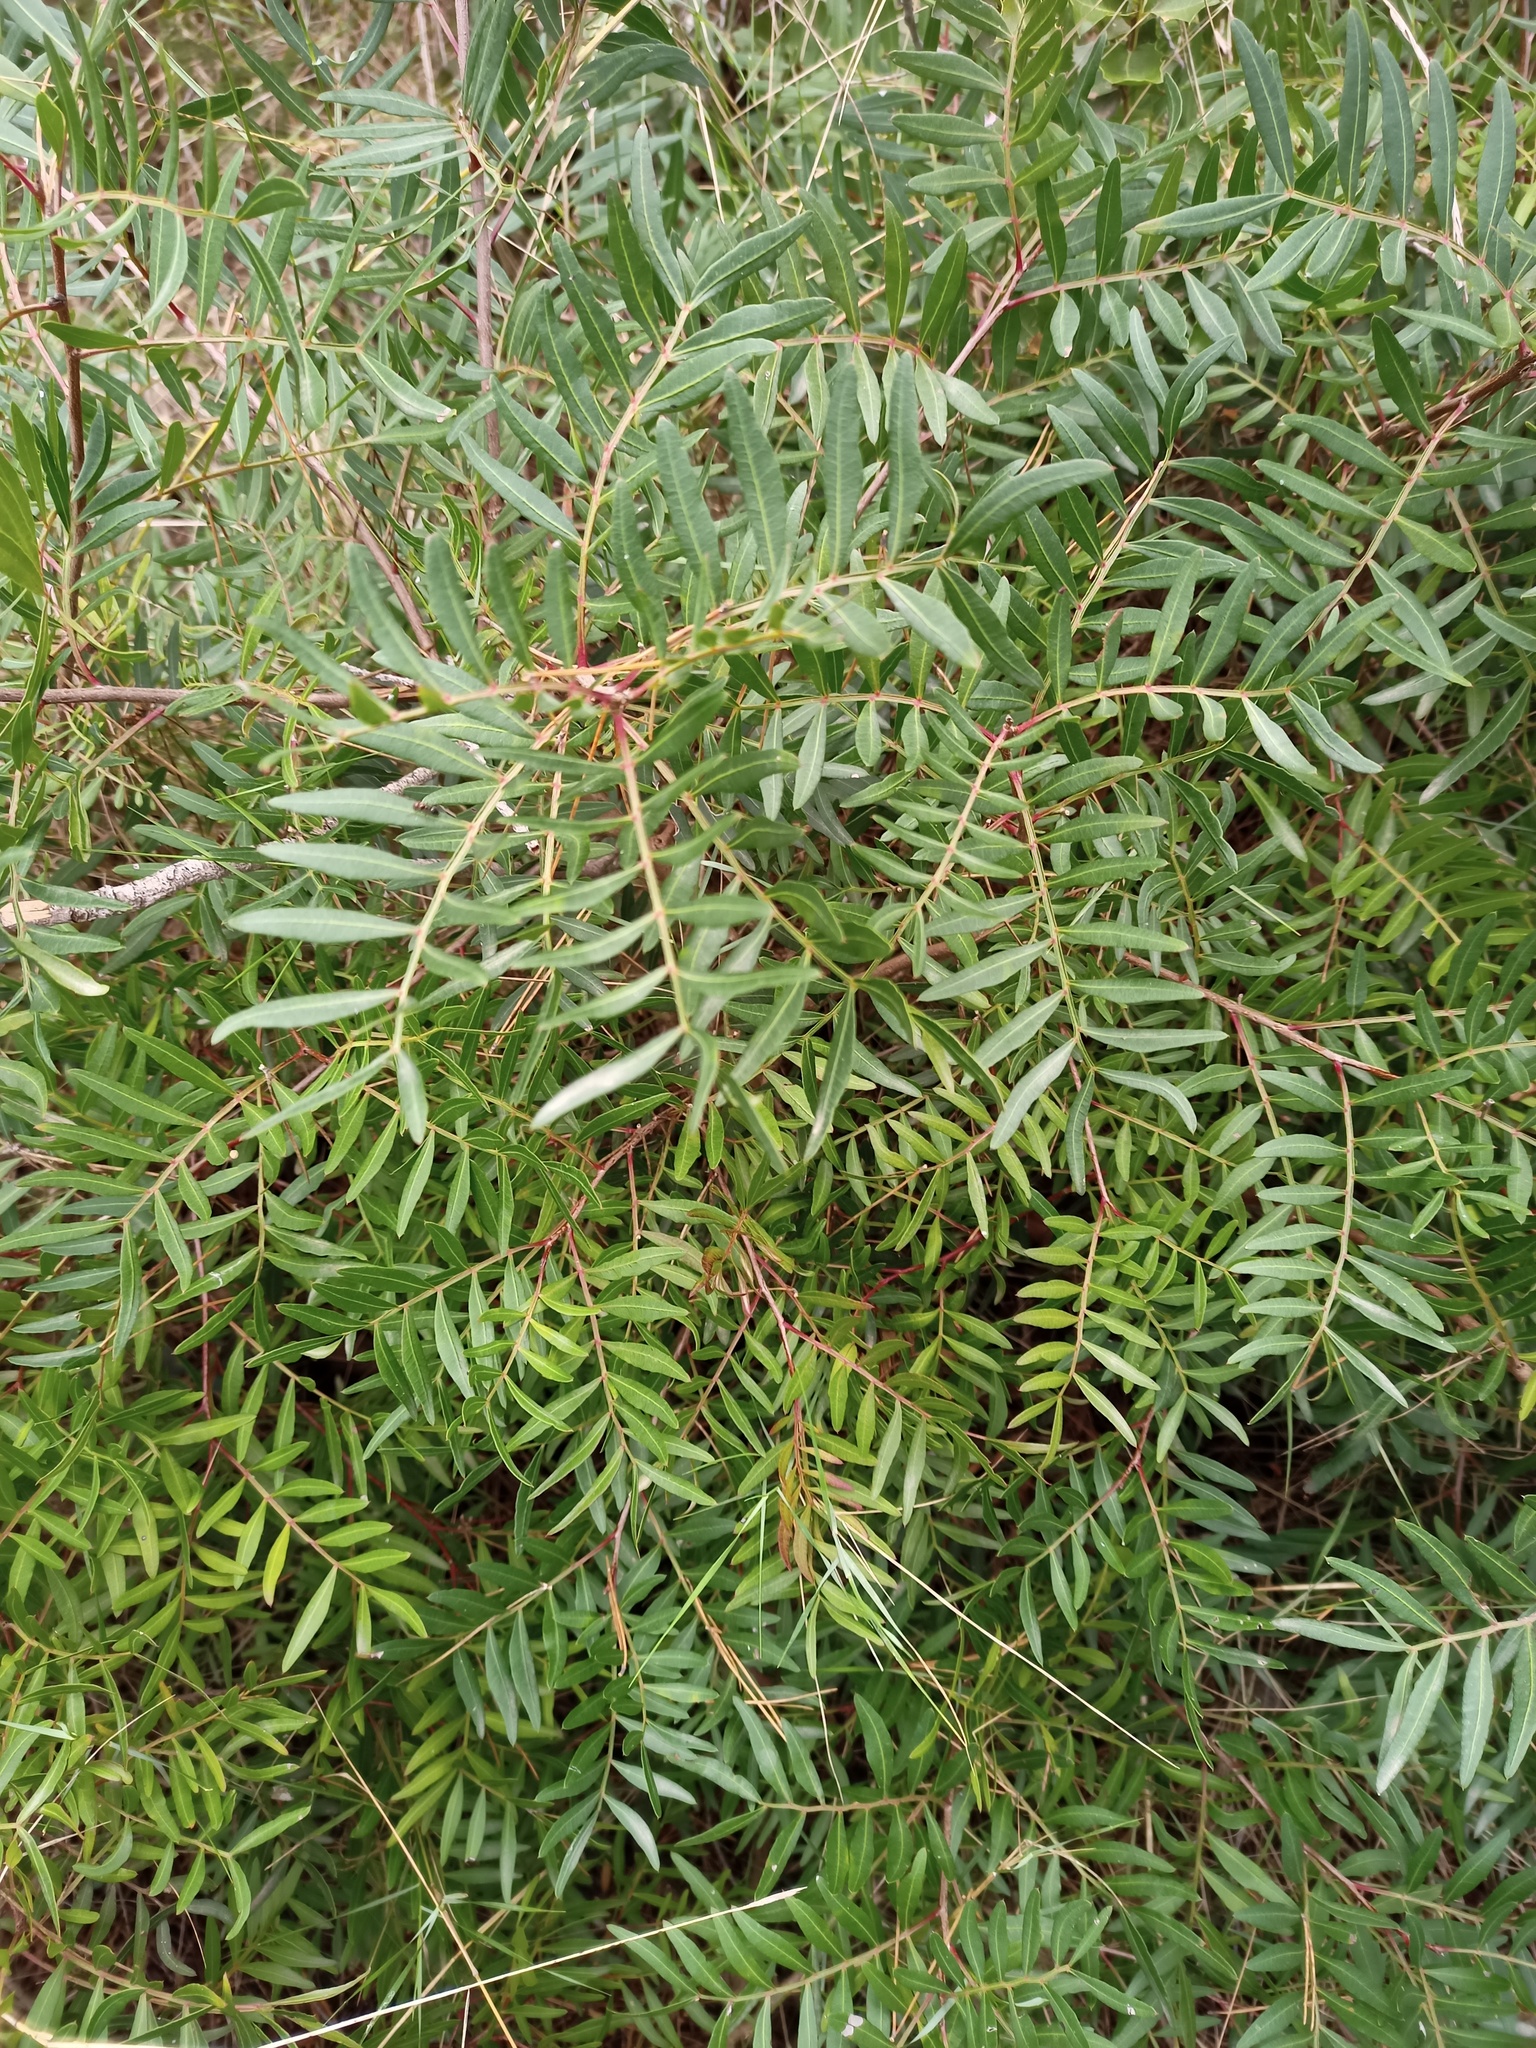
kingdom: Plantae
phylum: Tracheophyta
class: Magnoliopsida
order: Sapindales
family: Anacardiaceae
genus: Pistacia
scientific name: Pistacia lentiscus
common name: Lentisk
